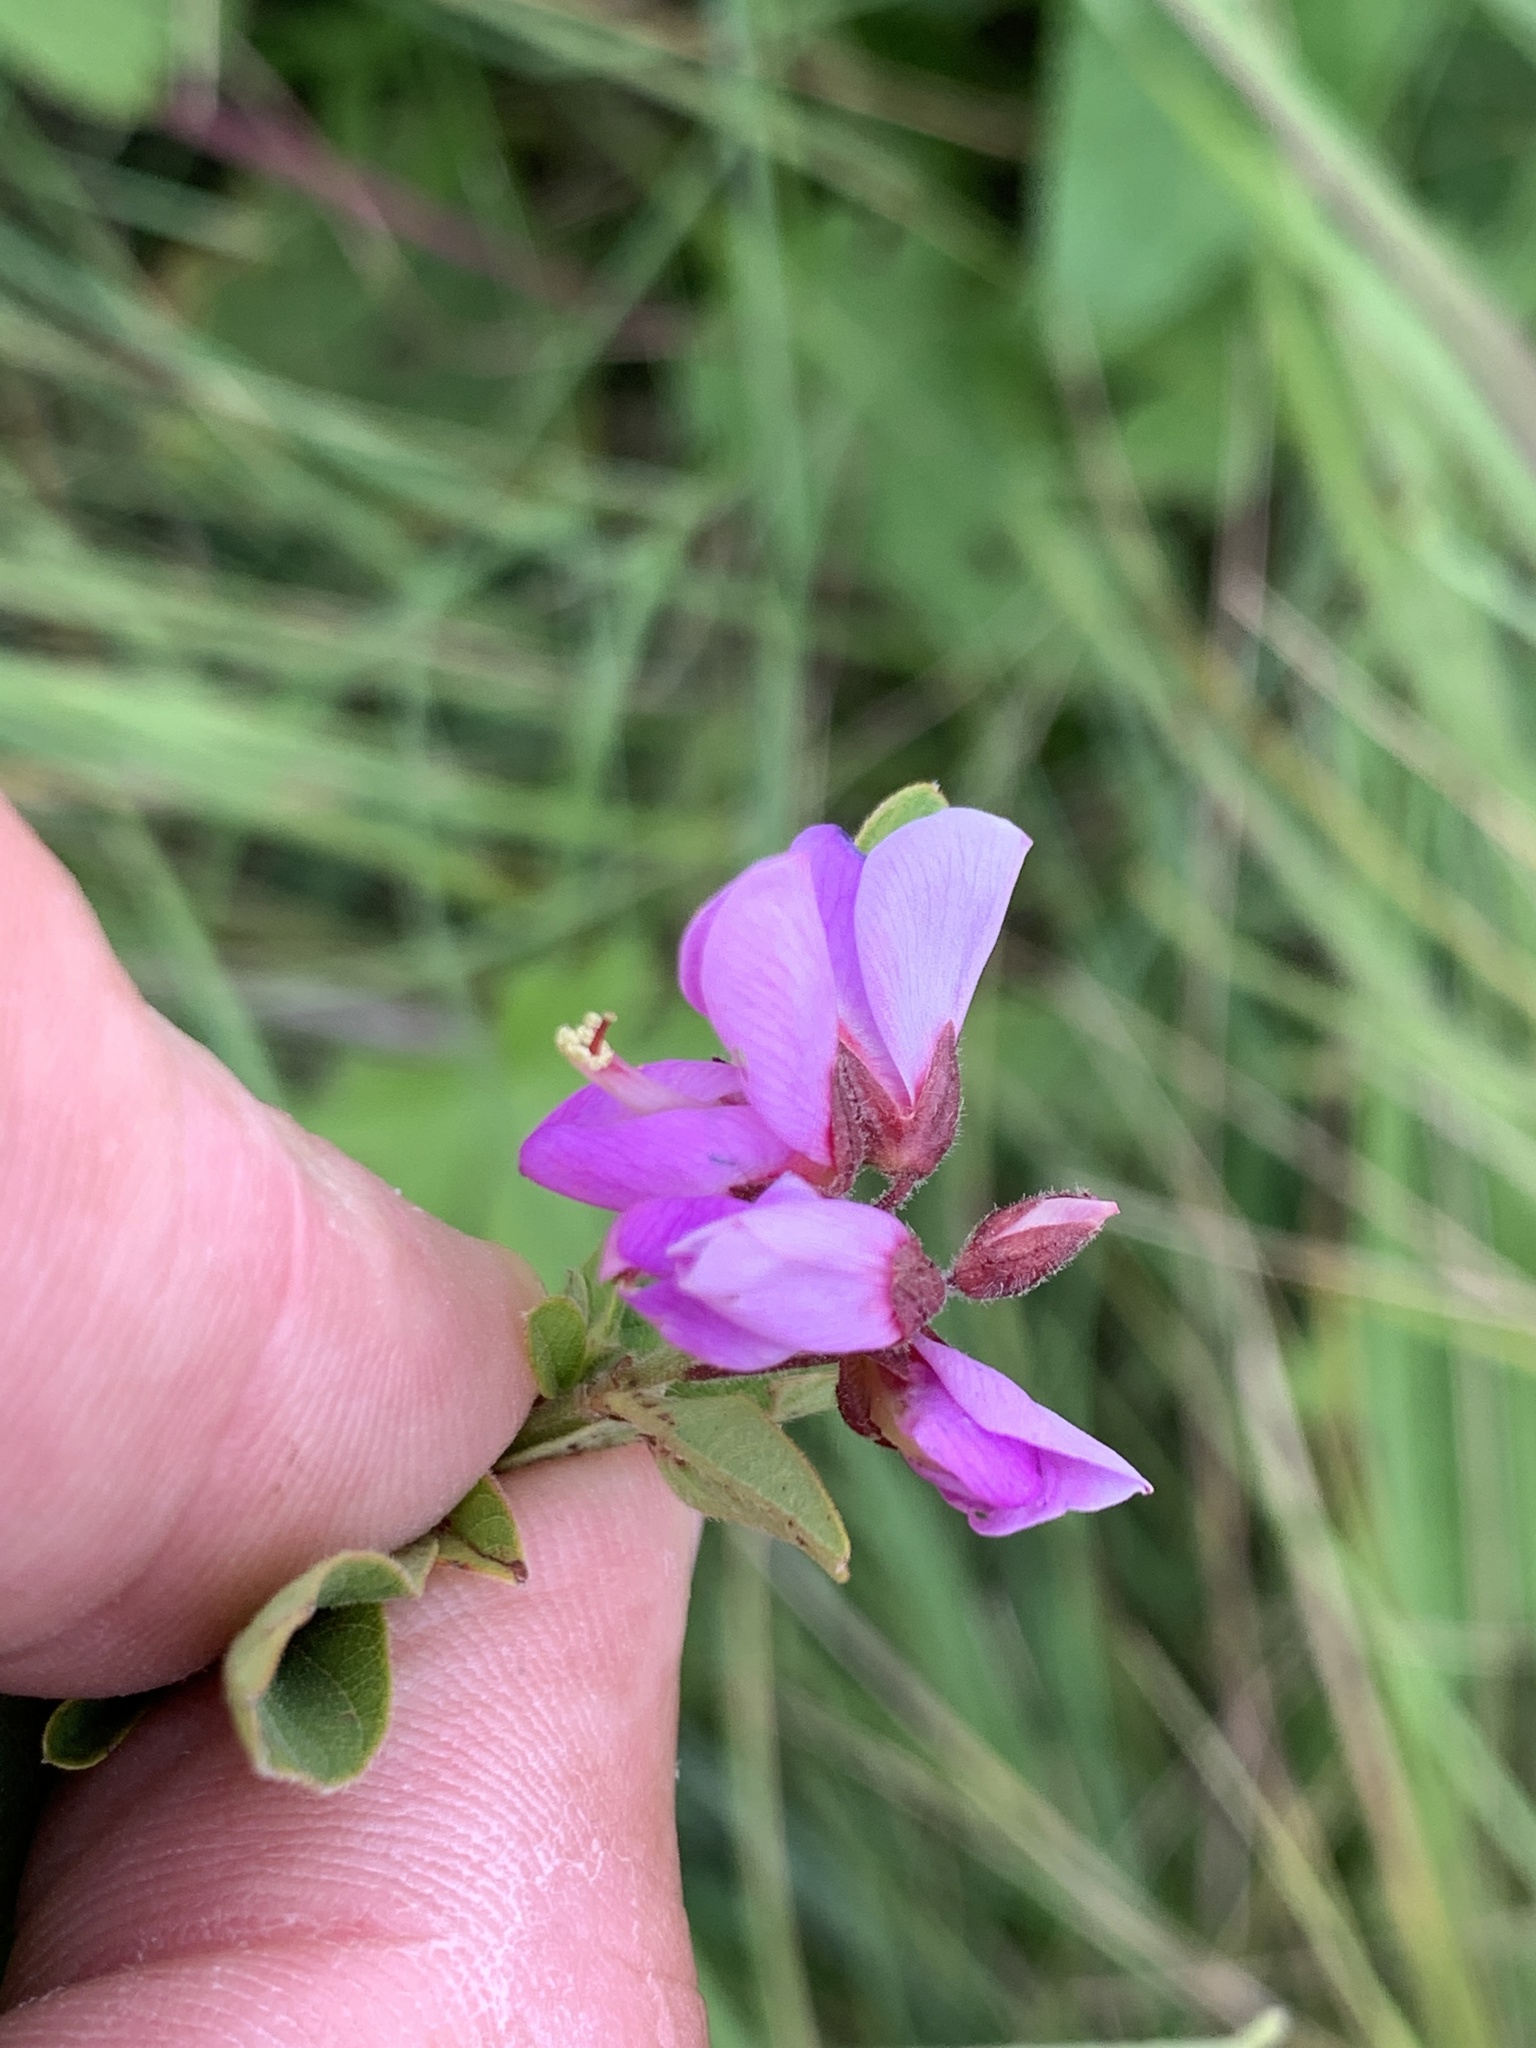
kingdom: Plantae
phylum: Tracheophyta
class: Magnoliopsida
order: Fabales
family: Fabaceae
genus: Desmodium
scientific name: Desmodium canadense
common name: Canada tick-trefoil
